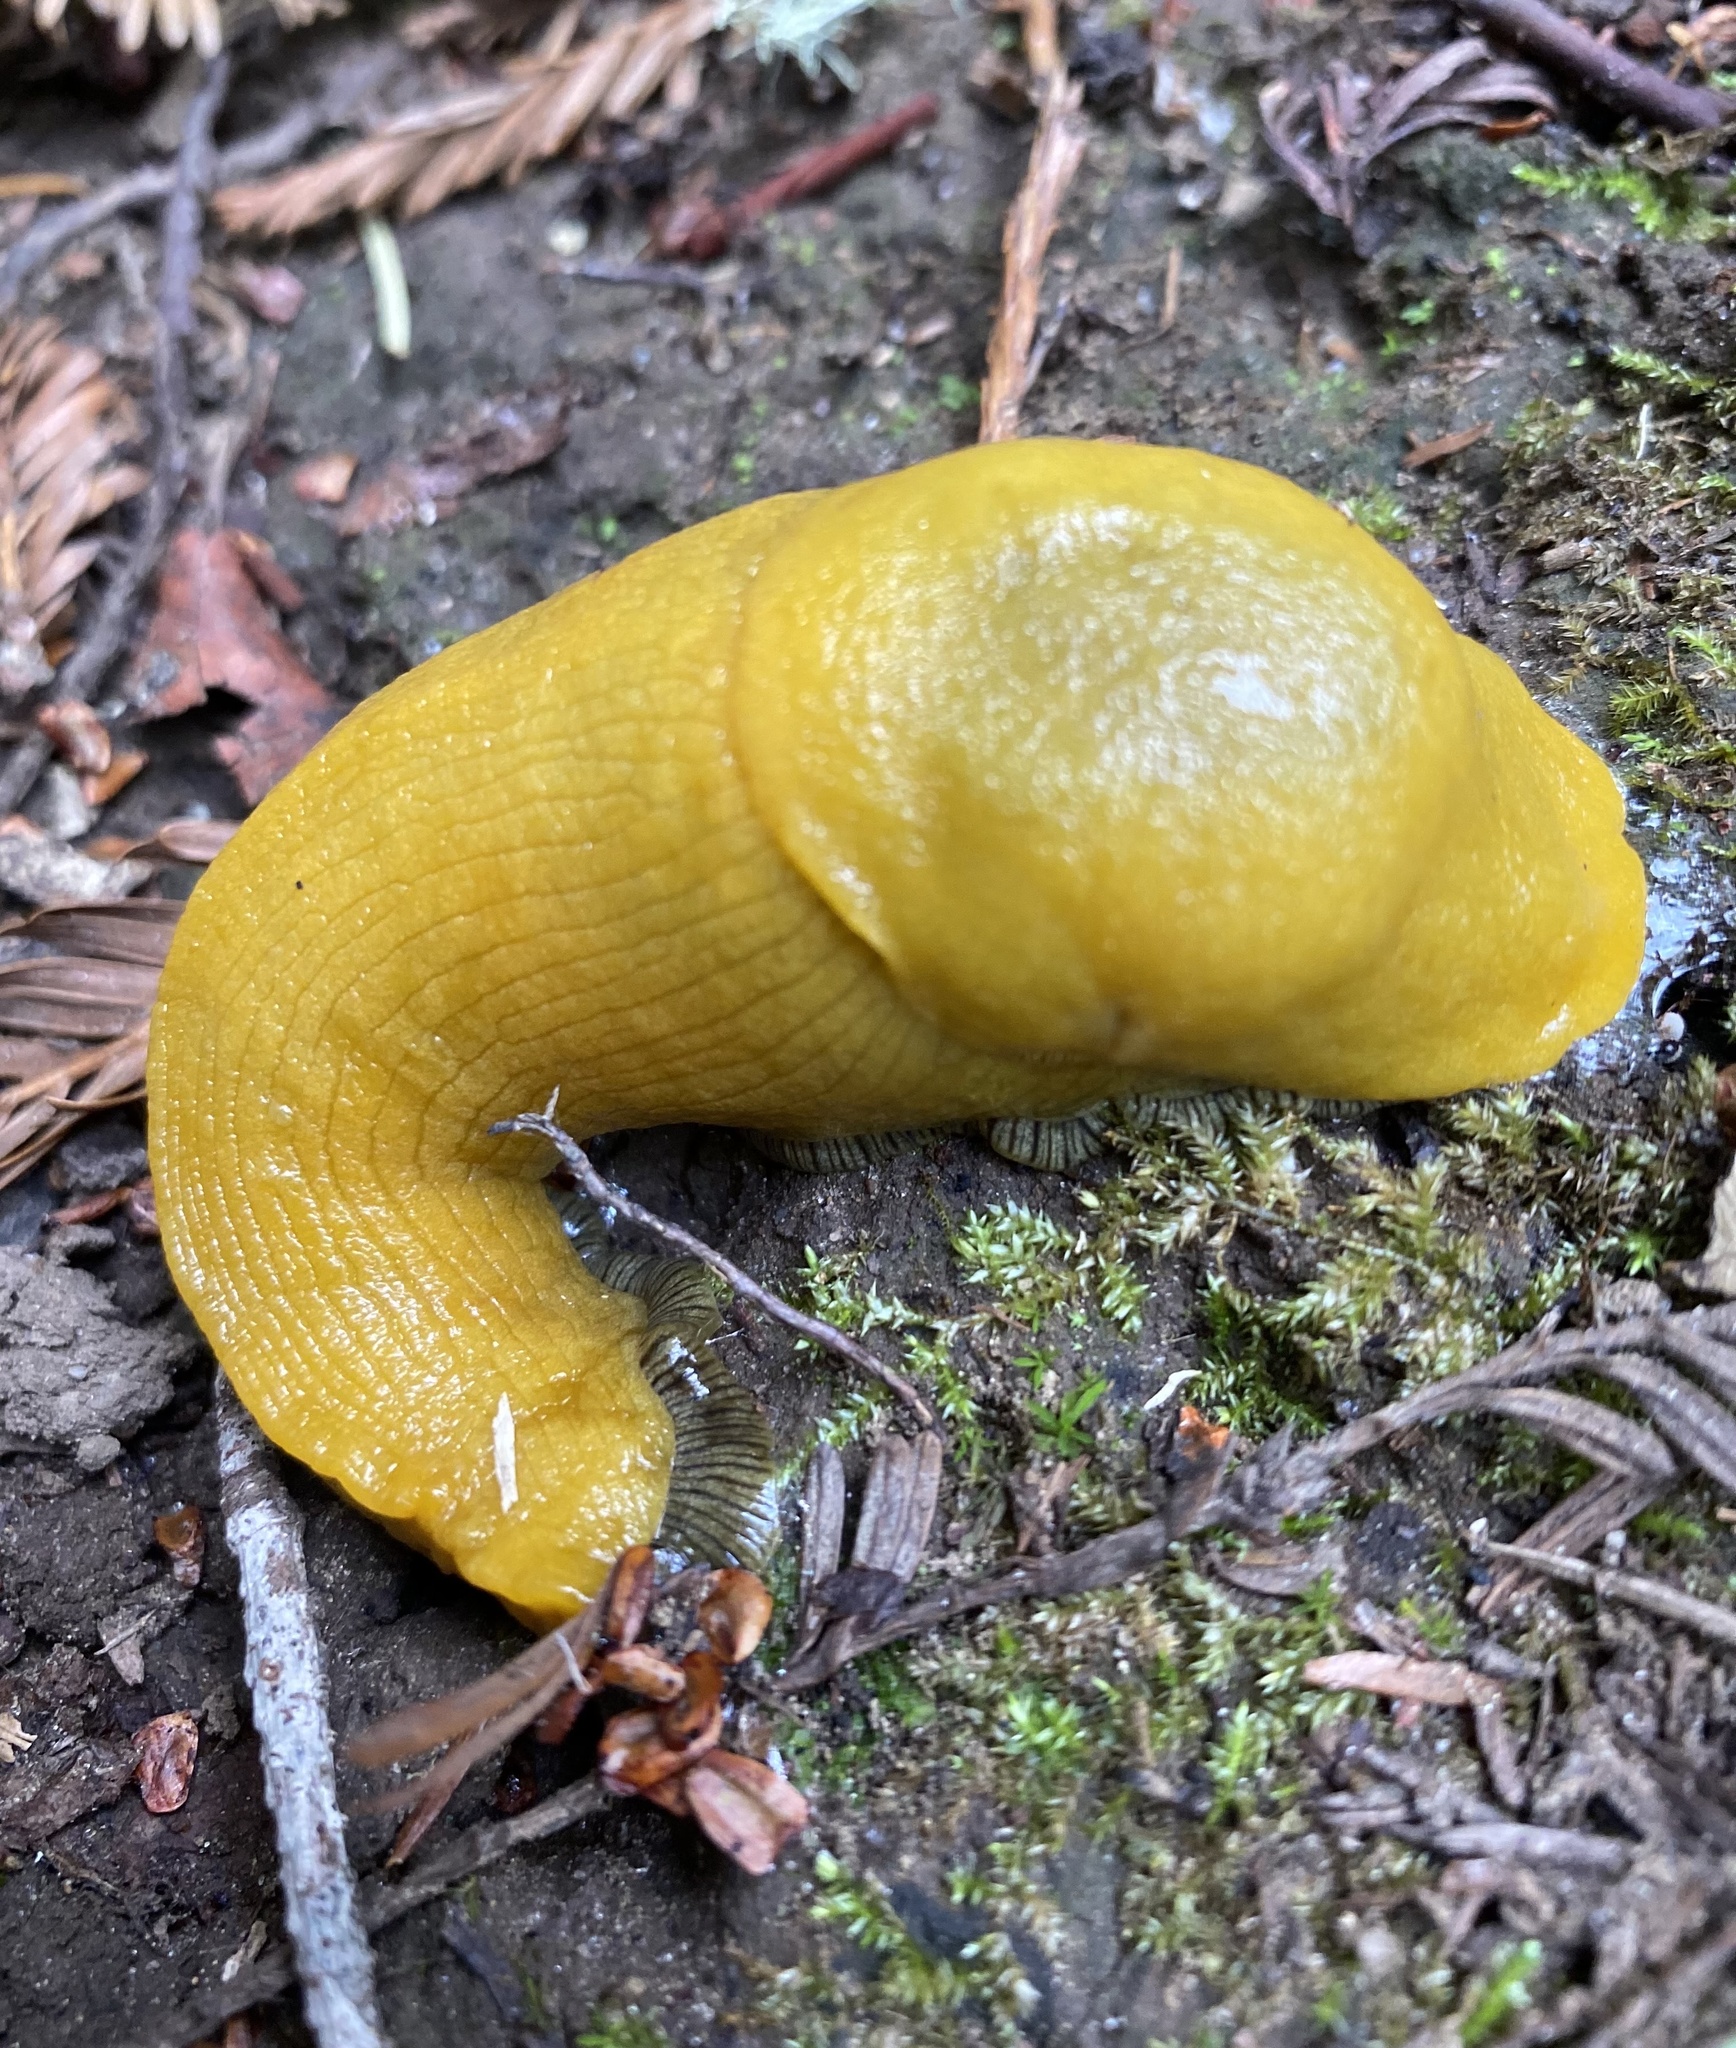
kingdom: Animalia
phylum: Mollusca
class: Gastropoda
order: Stylommatophora
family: Ariolimacidae
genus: Ariolimax
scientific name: Ariolimax dolichophallus
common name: Slender banana slug
